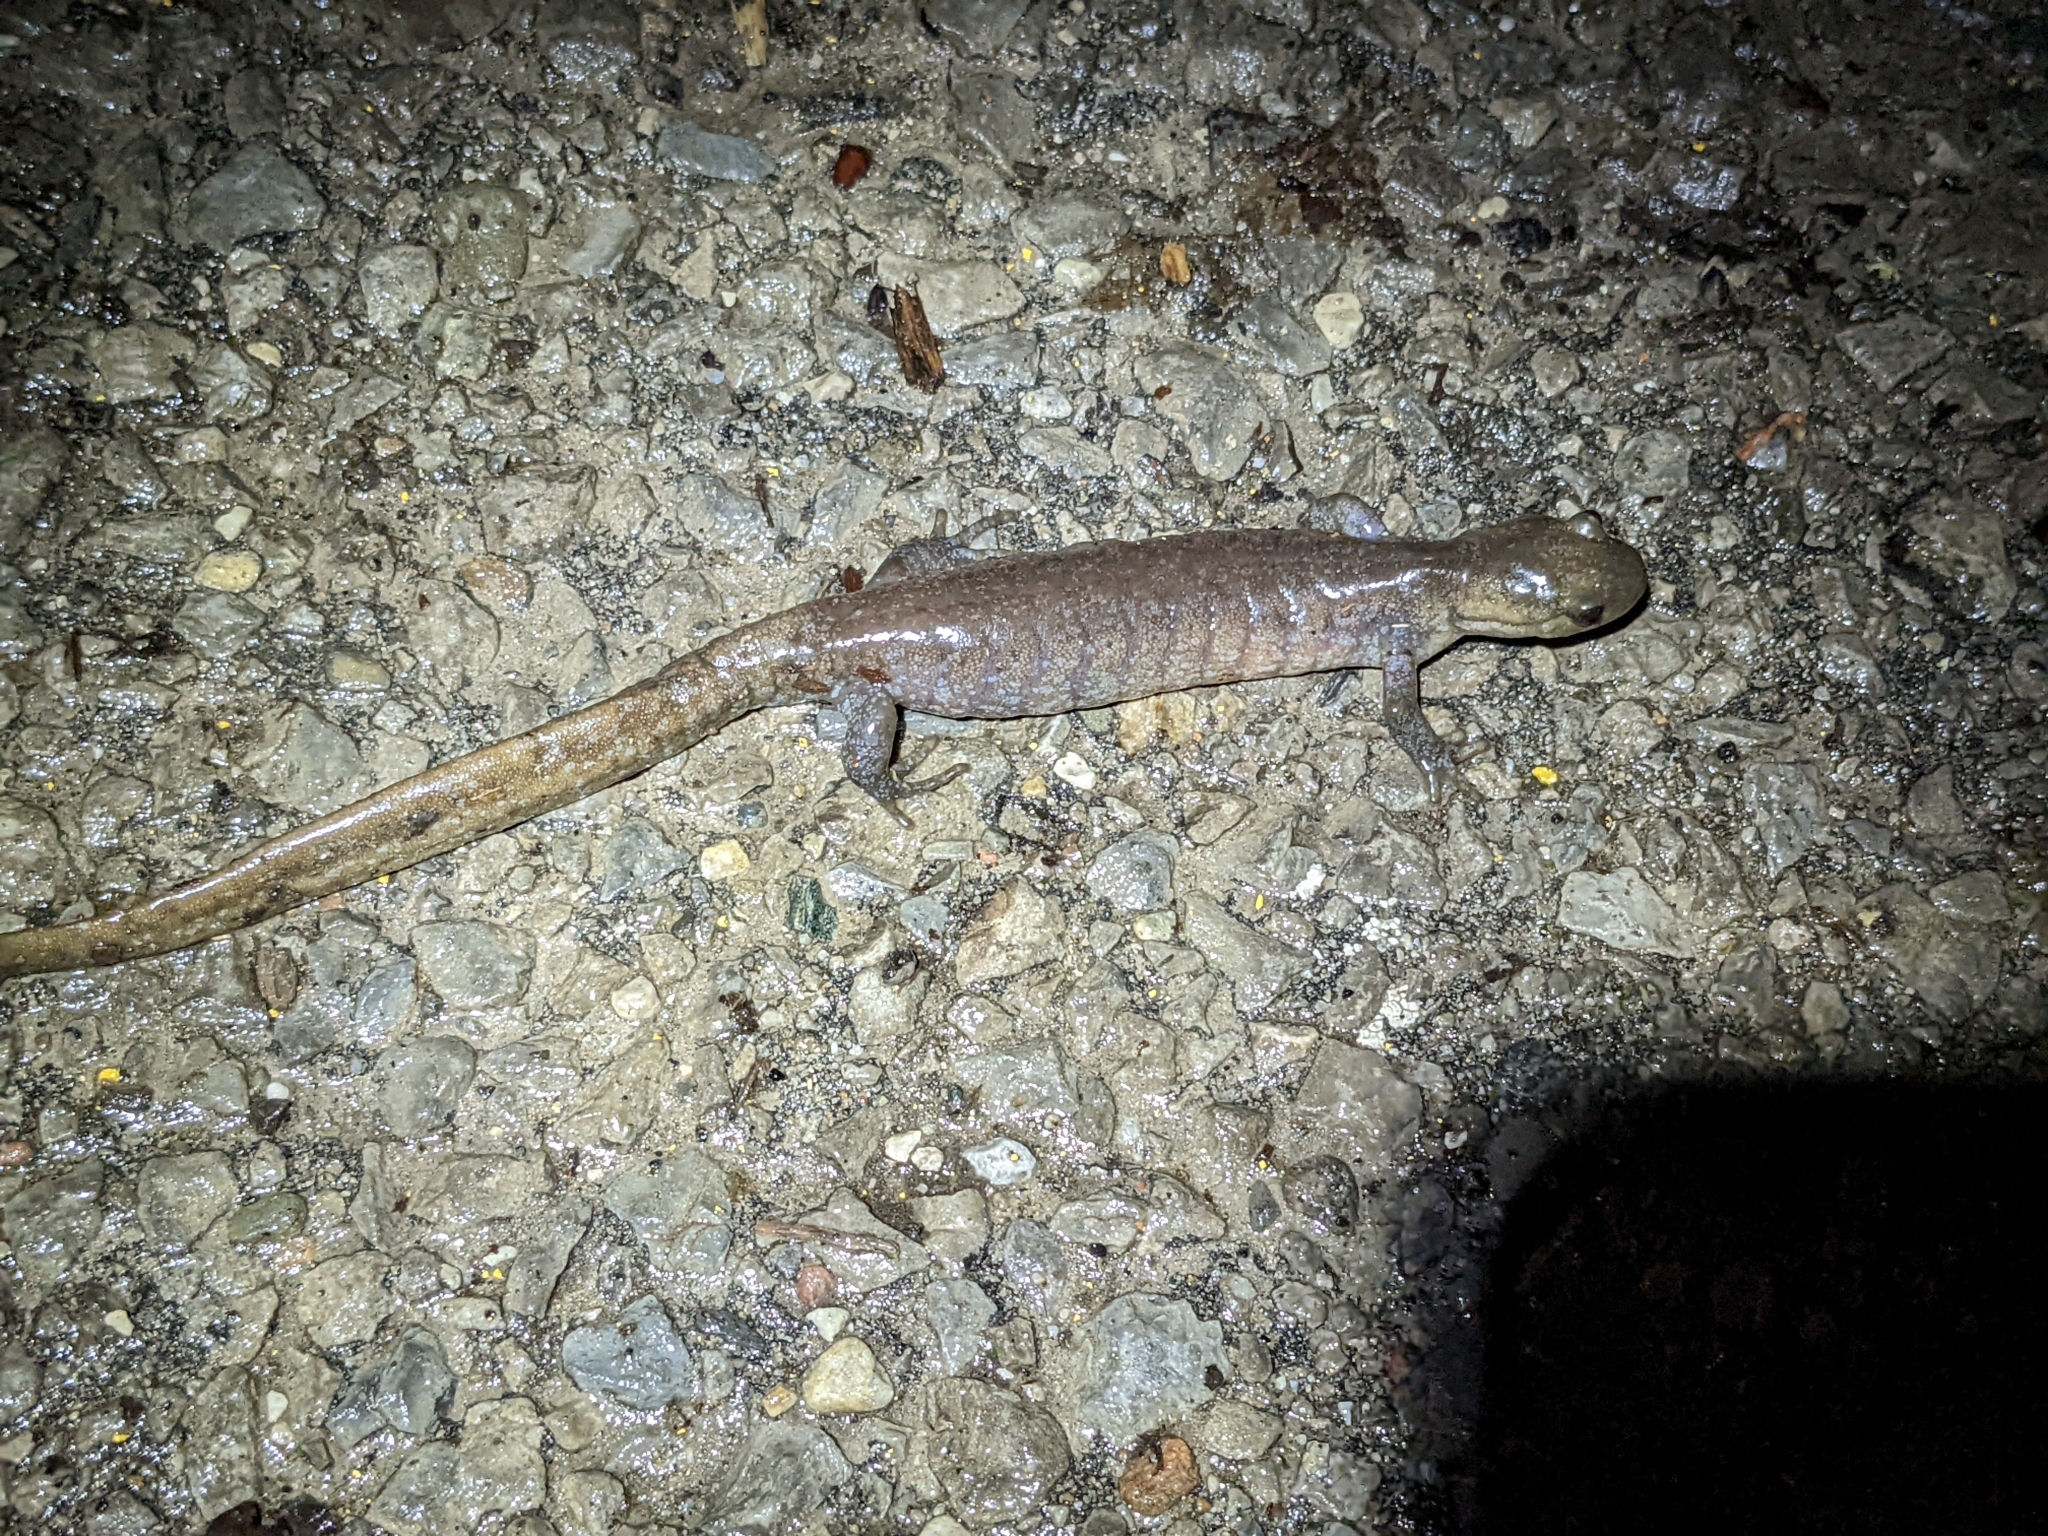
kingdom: Animalia
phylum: Chordata
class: Amphibia
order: Caudata
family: Ambystomatidae
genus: Ambystoma
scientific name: Ambystoma jeffersonianum
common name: Jefferson salamander
